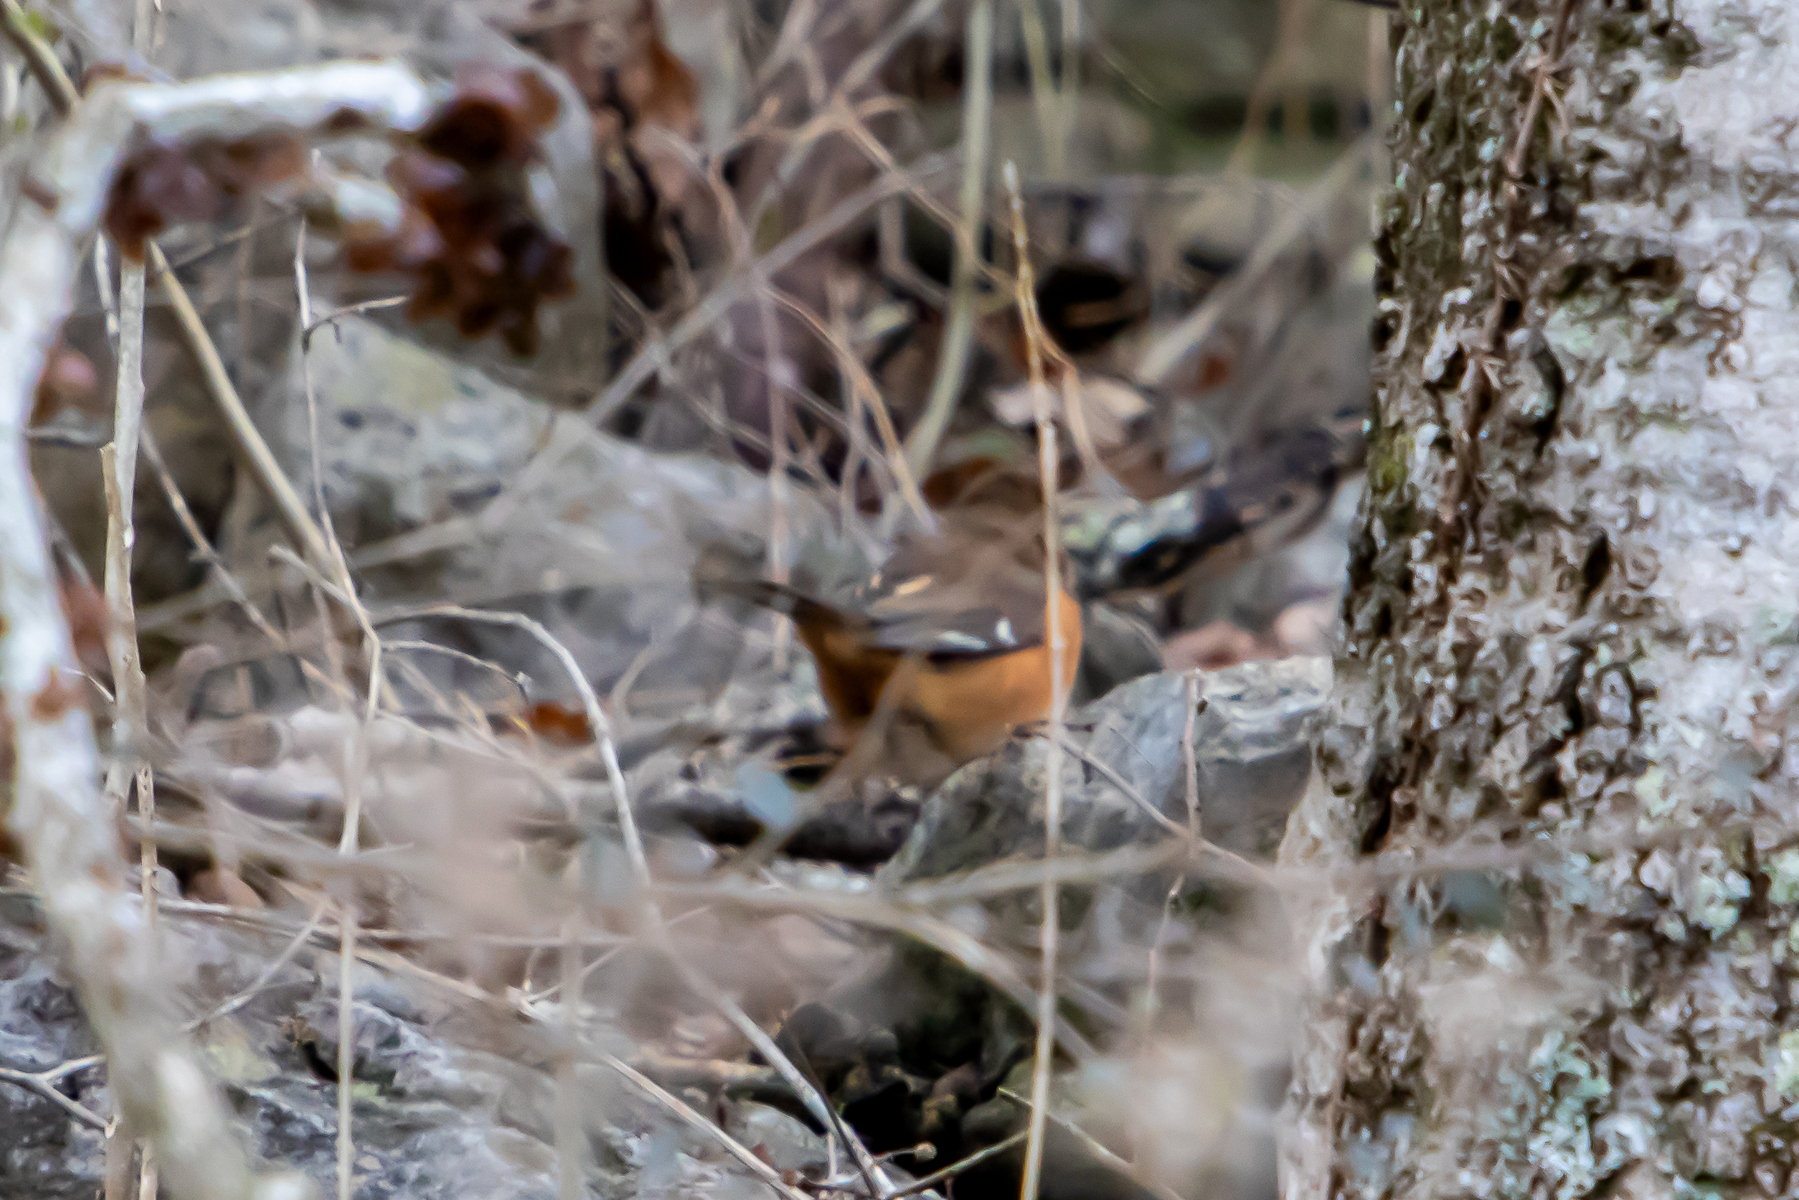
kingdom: Animalia
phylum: Chordata
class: Aves
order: Passeriformes
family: Passerellidae
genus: Pipilo
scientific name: Pipilo erythrophthalmus
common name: Eastern towhee
